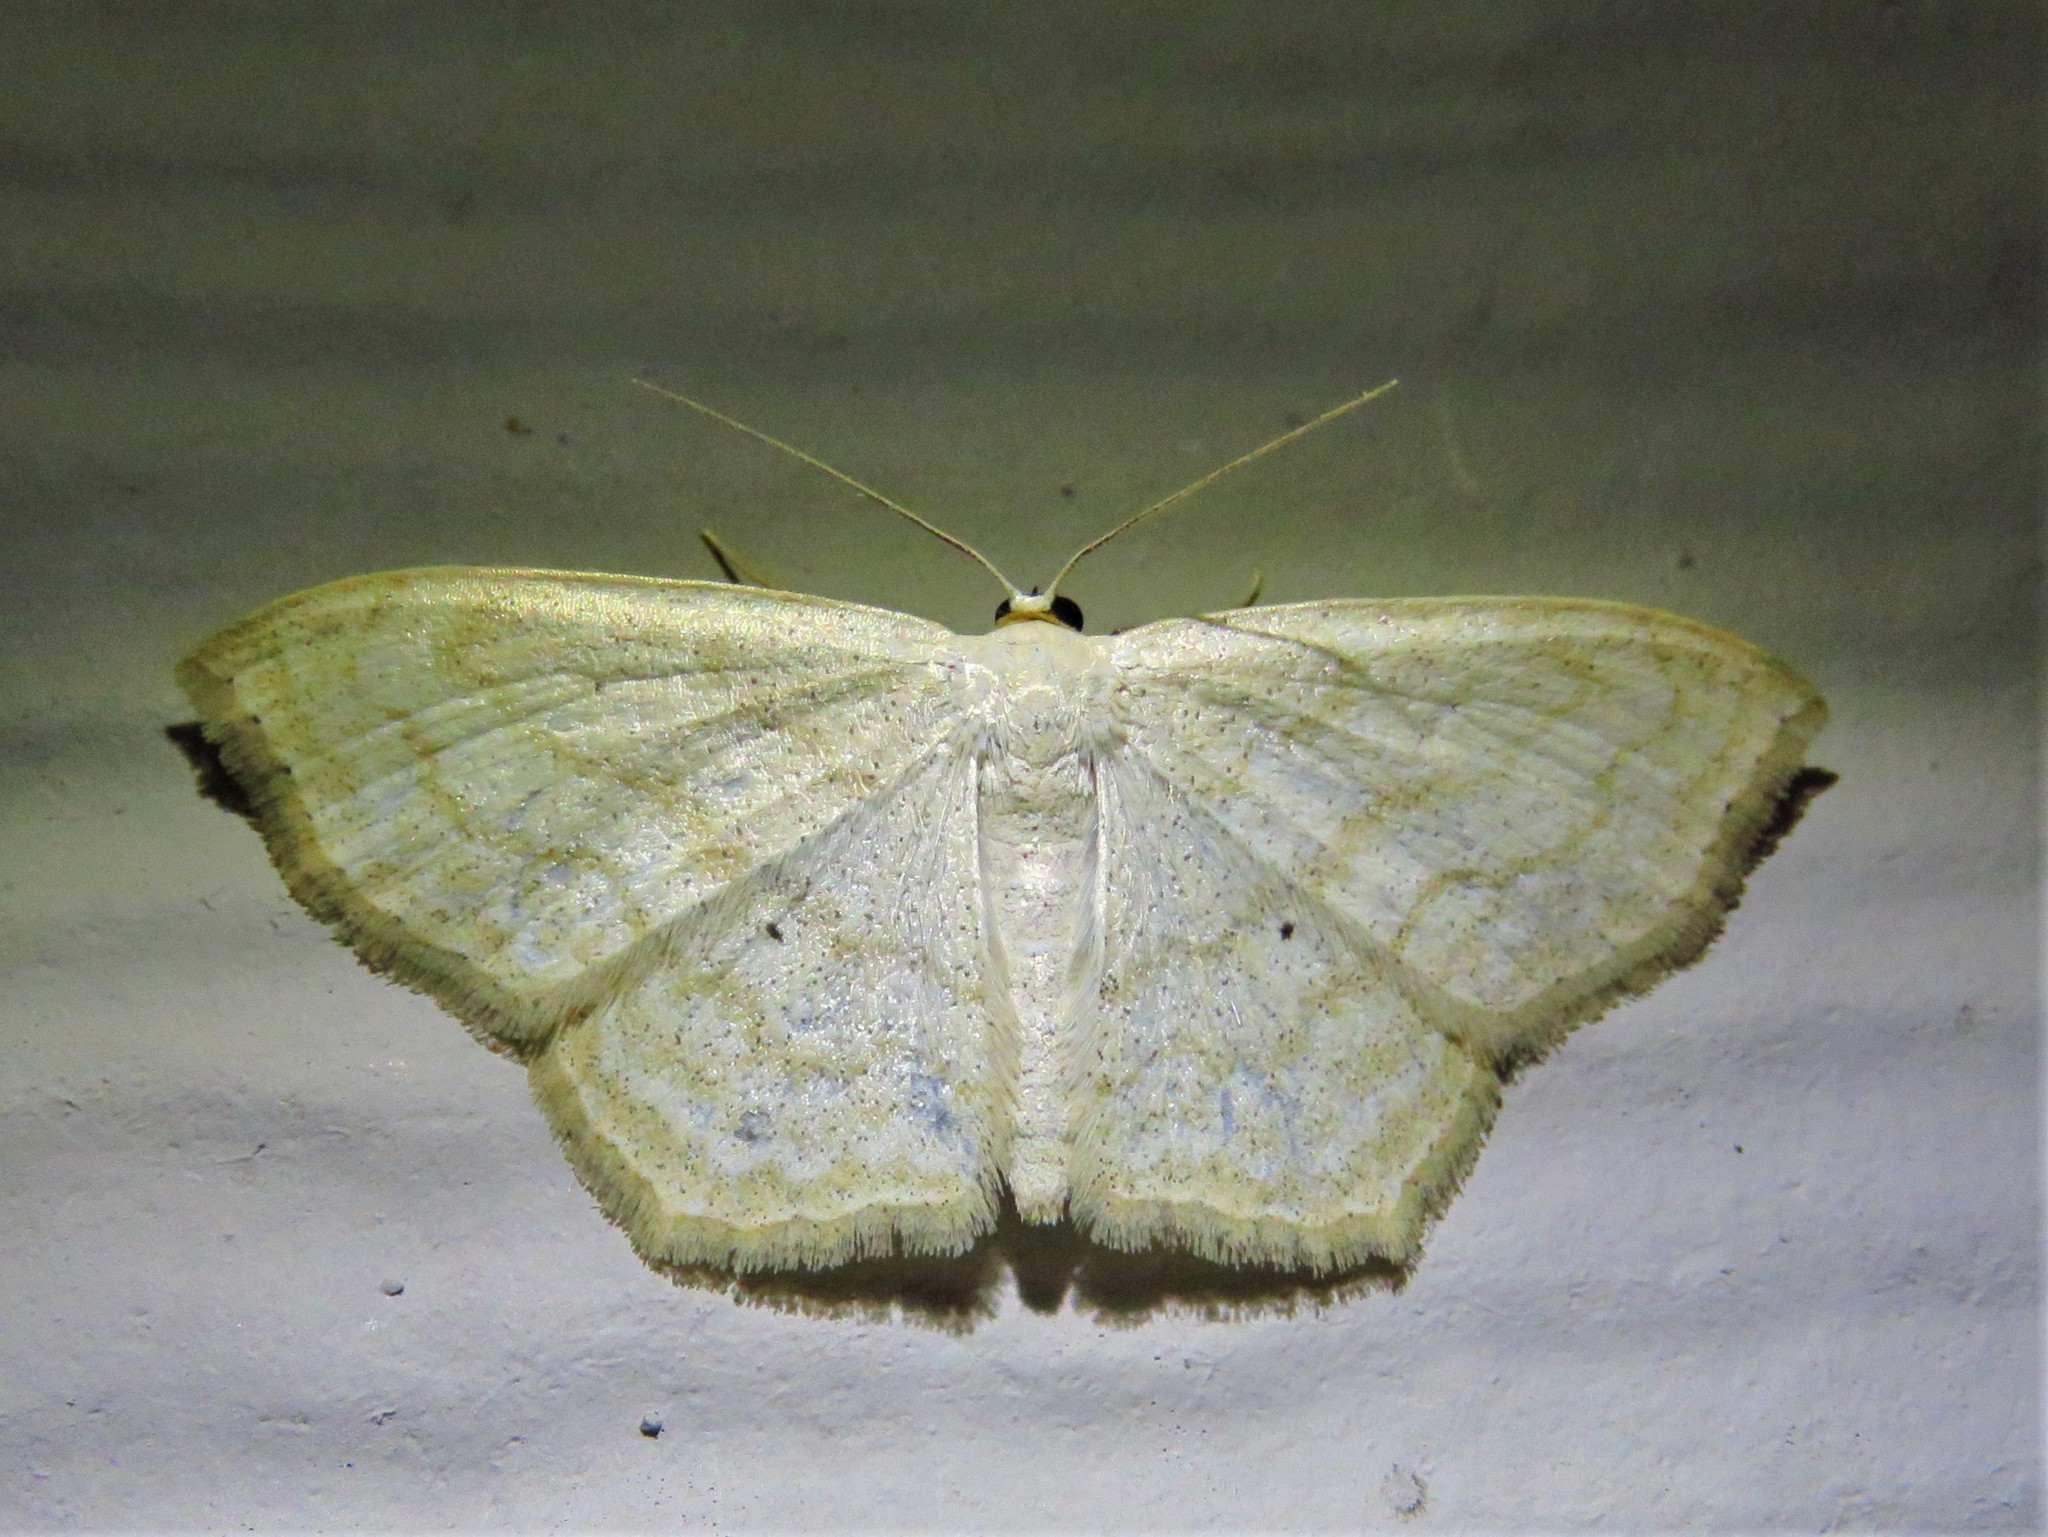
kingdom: Animalia
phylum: Arthropoda
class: Insecta
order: Lepidoptera
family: Geometridae
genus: Scopula
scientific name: Scopula limboundata
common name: Large lace border
